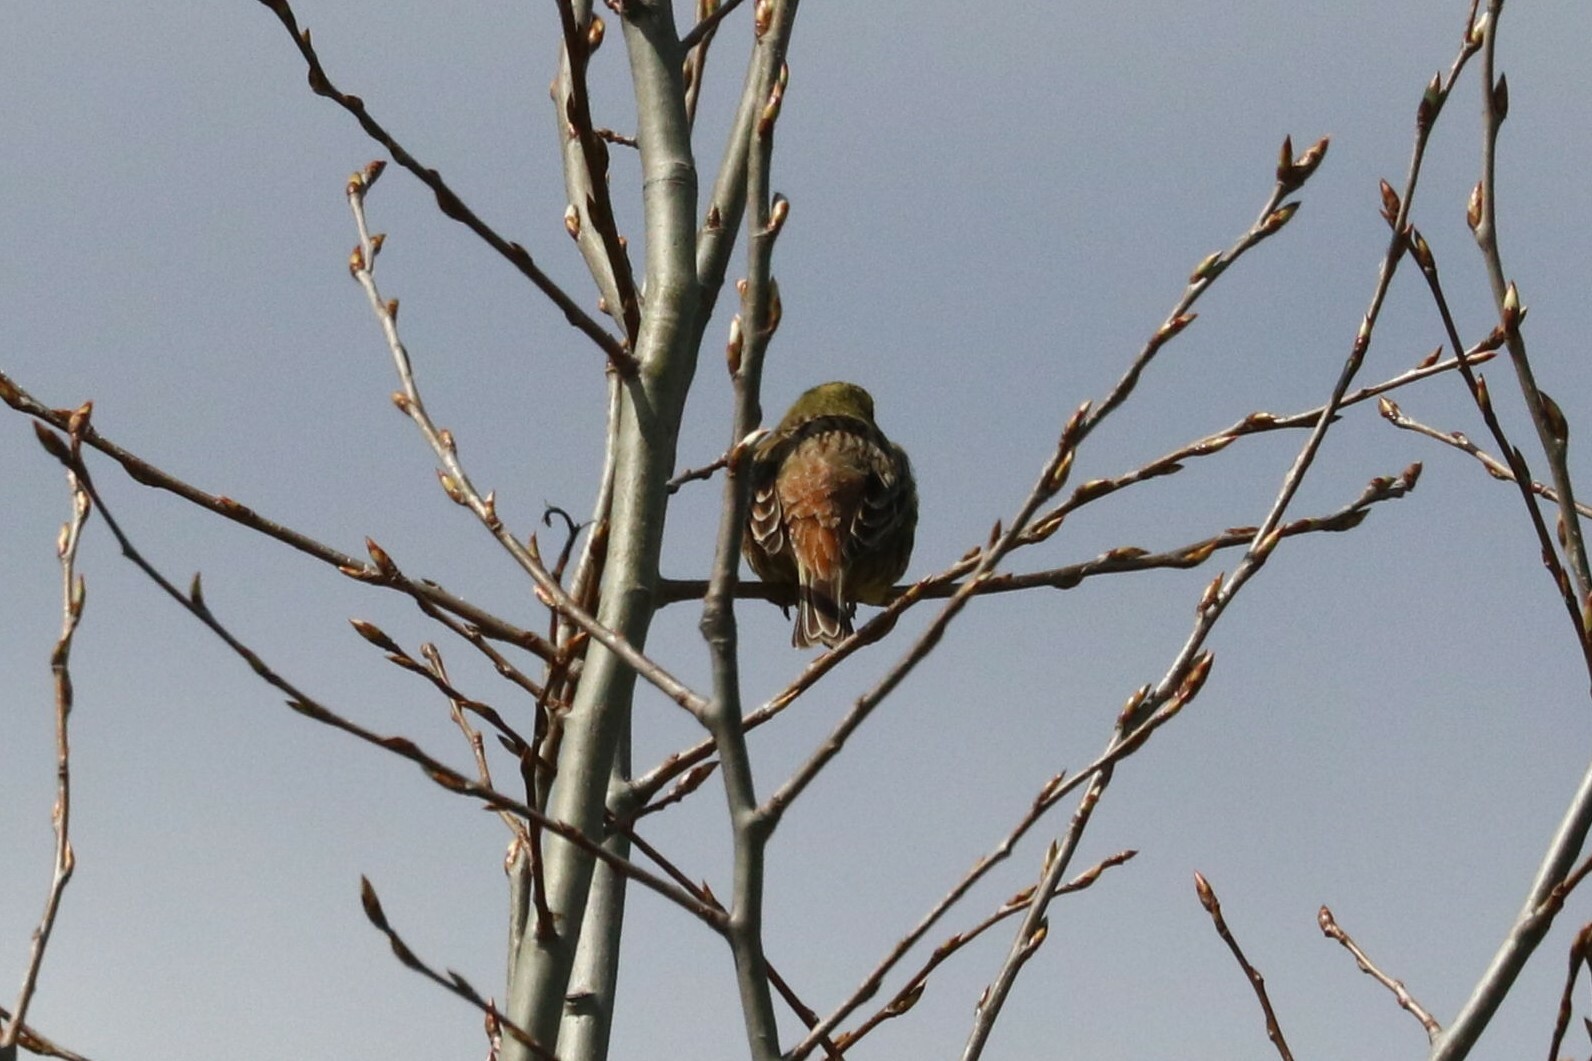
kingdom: Animalia
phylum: Chordata
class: Aves
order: Passeriformes
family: Emberizidae
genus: Emberiza
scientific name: Emberiza citrinella
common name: Yellowhammer
